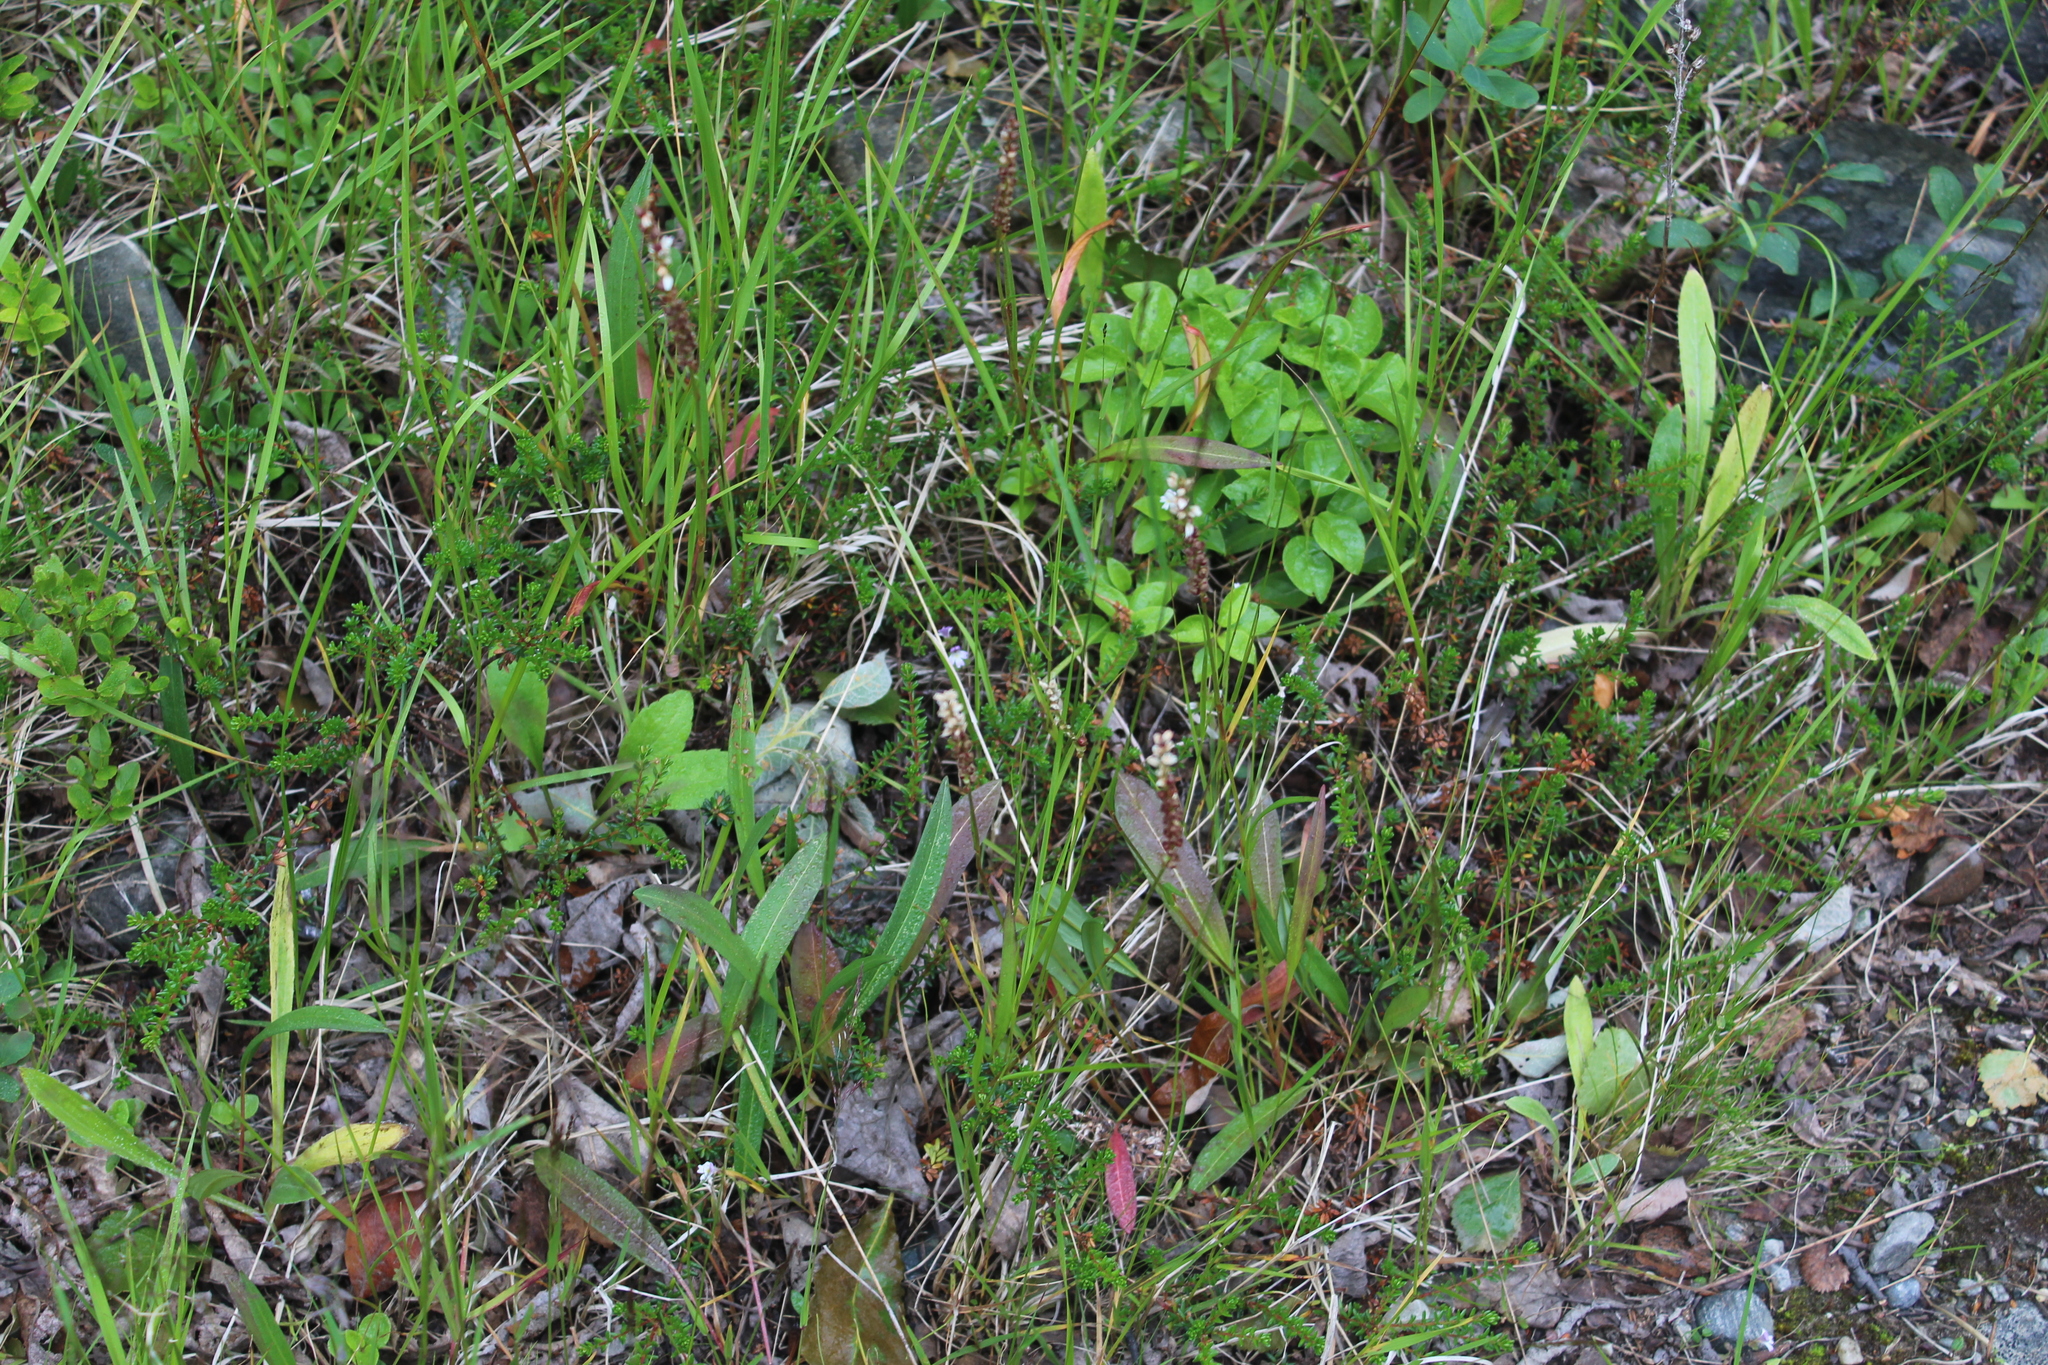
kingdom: Plantae
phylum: Tracheophyta
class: Magnoliopsida
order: Caryophyllales
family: Polygonaceae
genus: Bistorta
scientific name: Bistorta vivipara
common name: Alpine bistort
